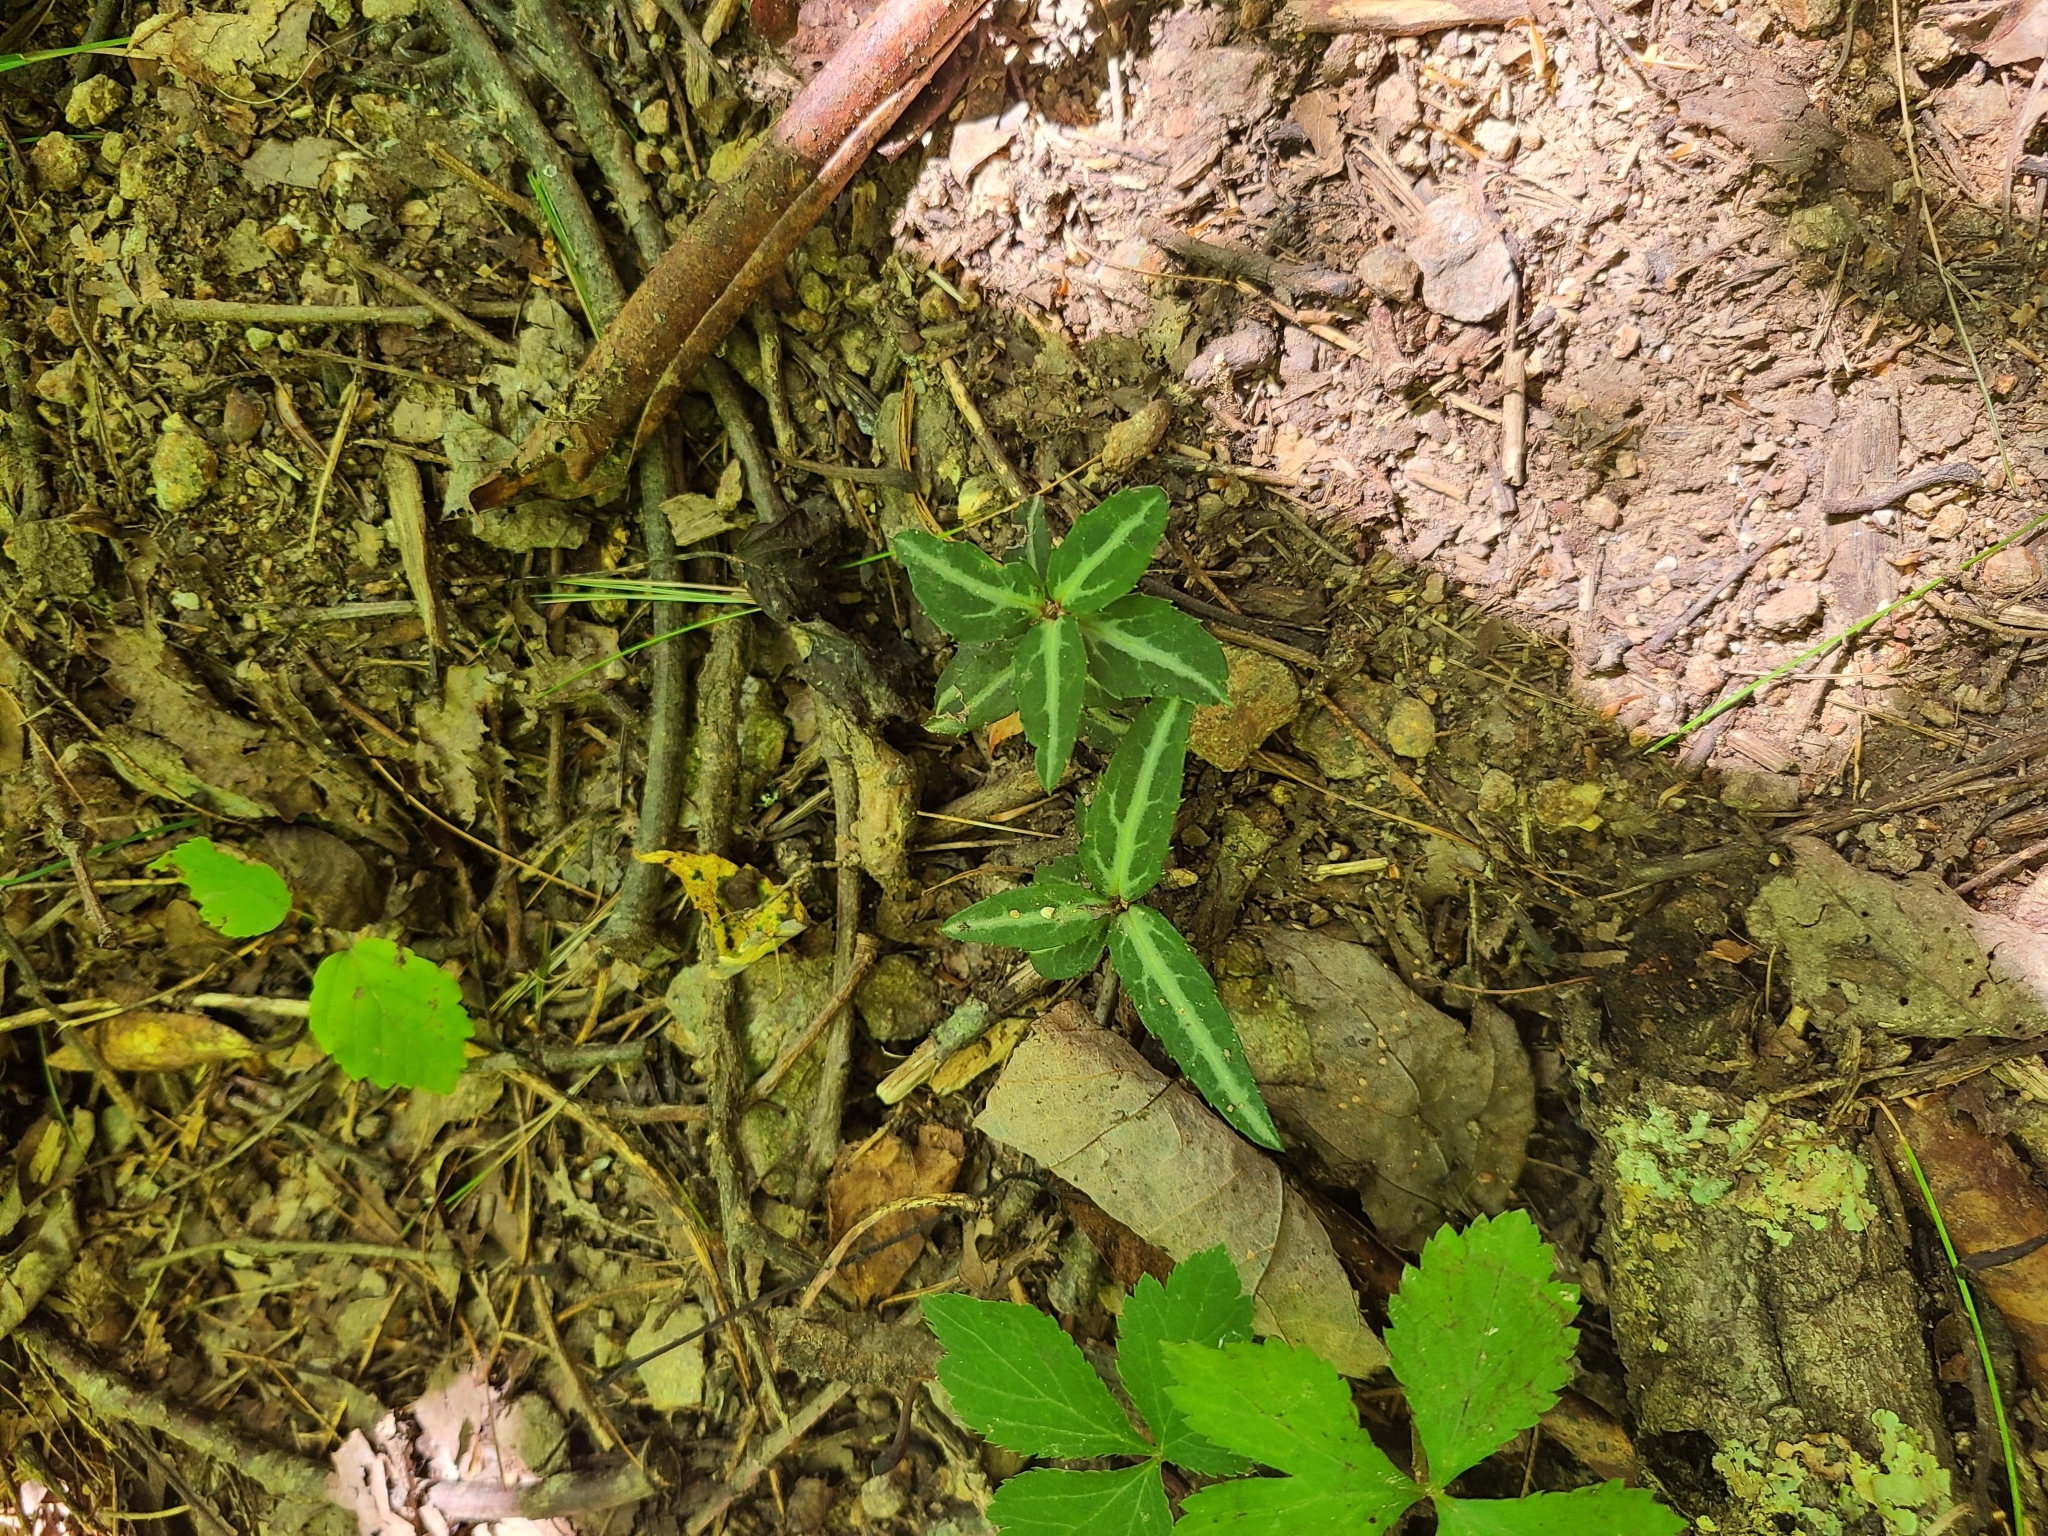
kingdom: Plantae
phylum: Tracheophyta
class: Magnoliopsida
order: Ericales
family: Ericaceae
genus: Chimaphila
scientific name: Chimaphila maculata
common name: Spotted pipsissewa
